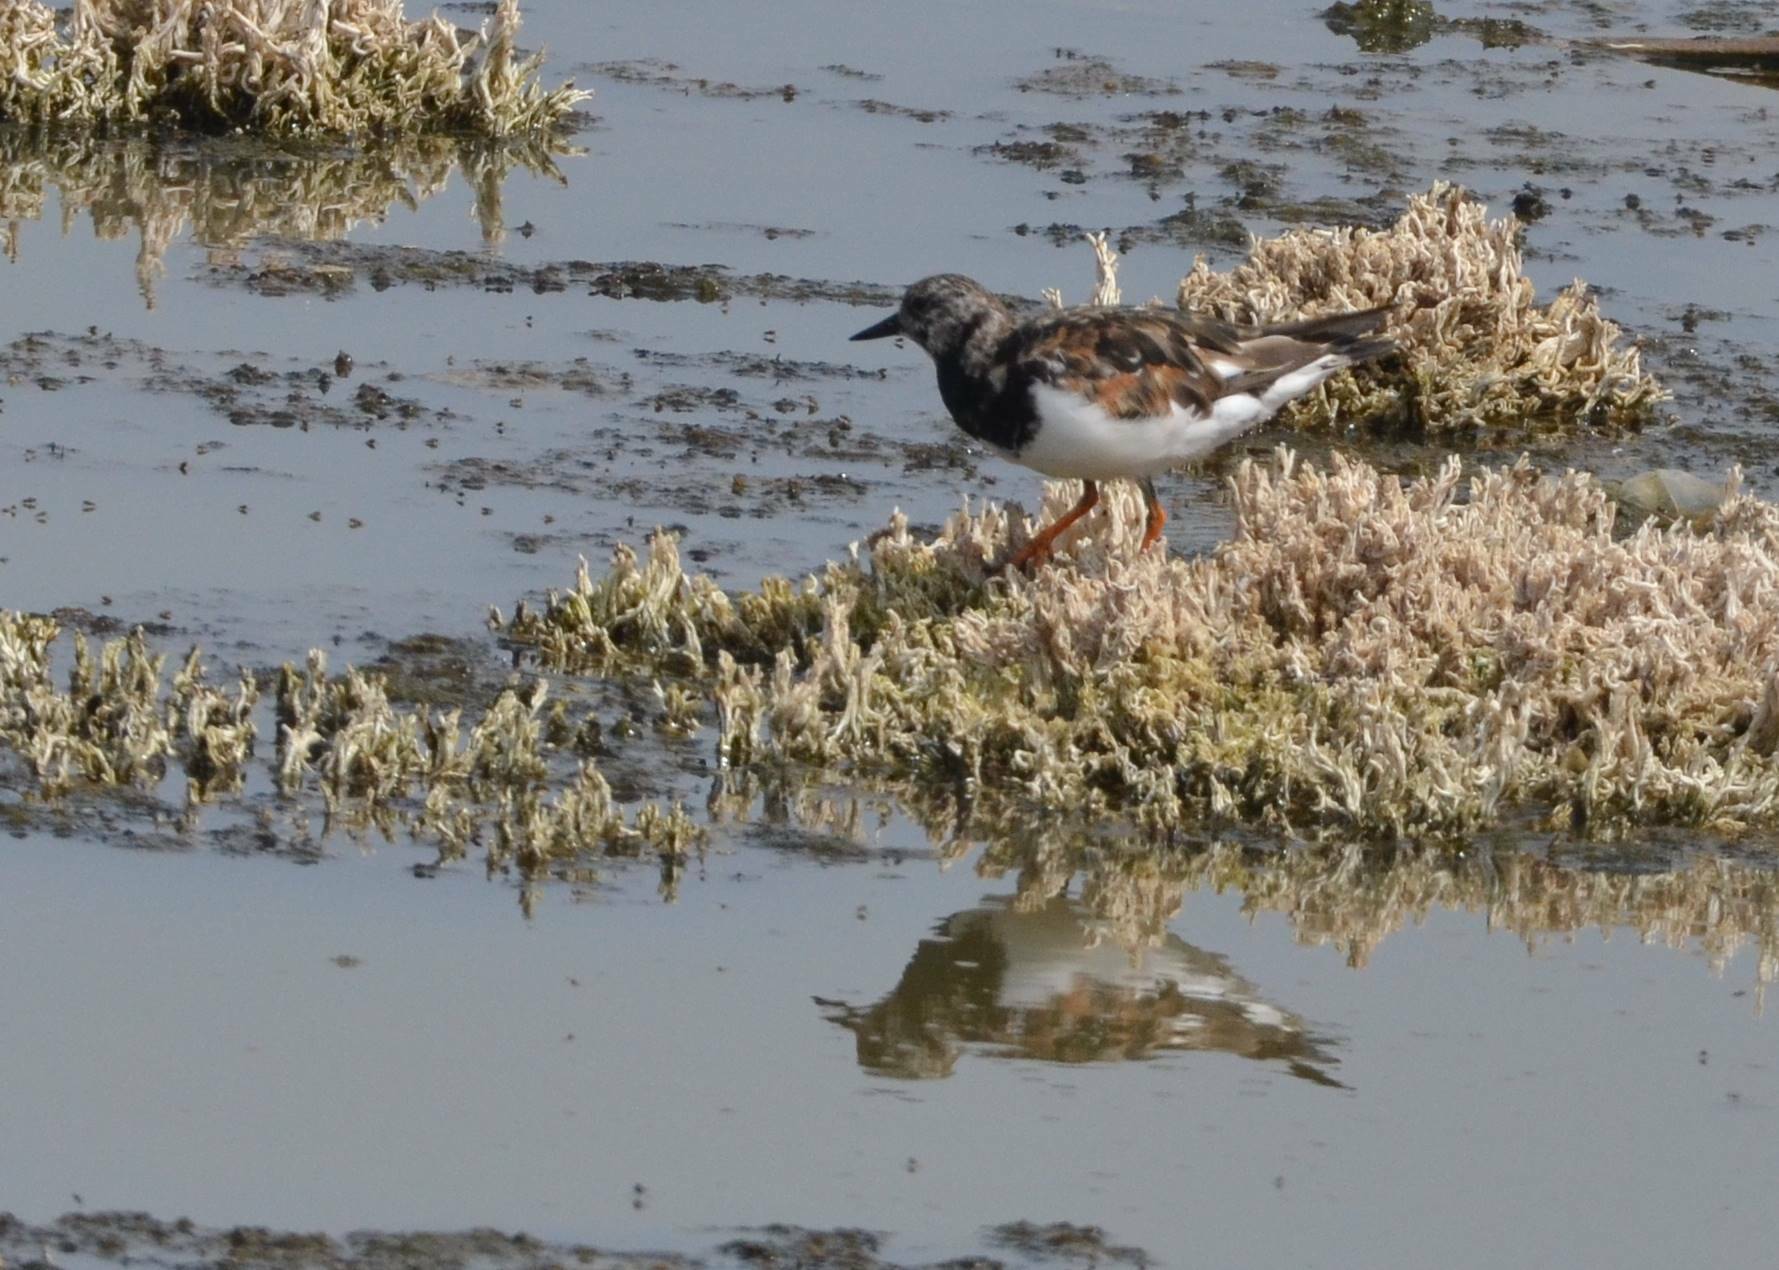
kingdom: Animalia
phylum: Chordata
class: Aves
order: Charadriiformes
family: Scolopacidae
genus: Arenaria
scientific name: Arenaria interpres
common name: Ruddy turnstone
